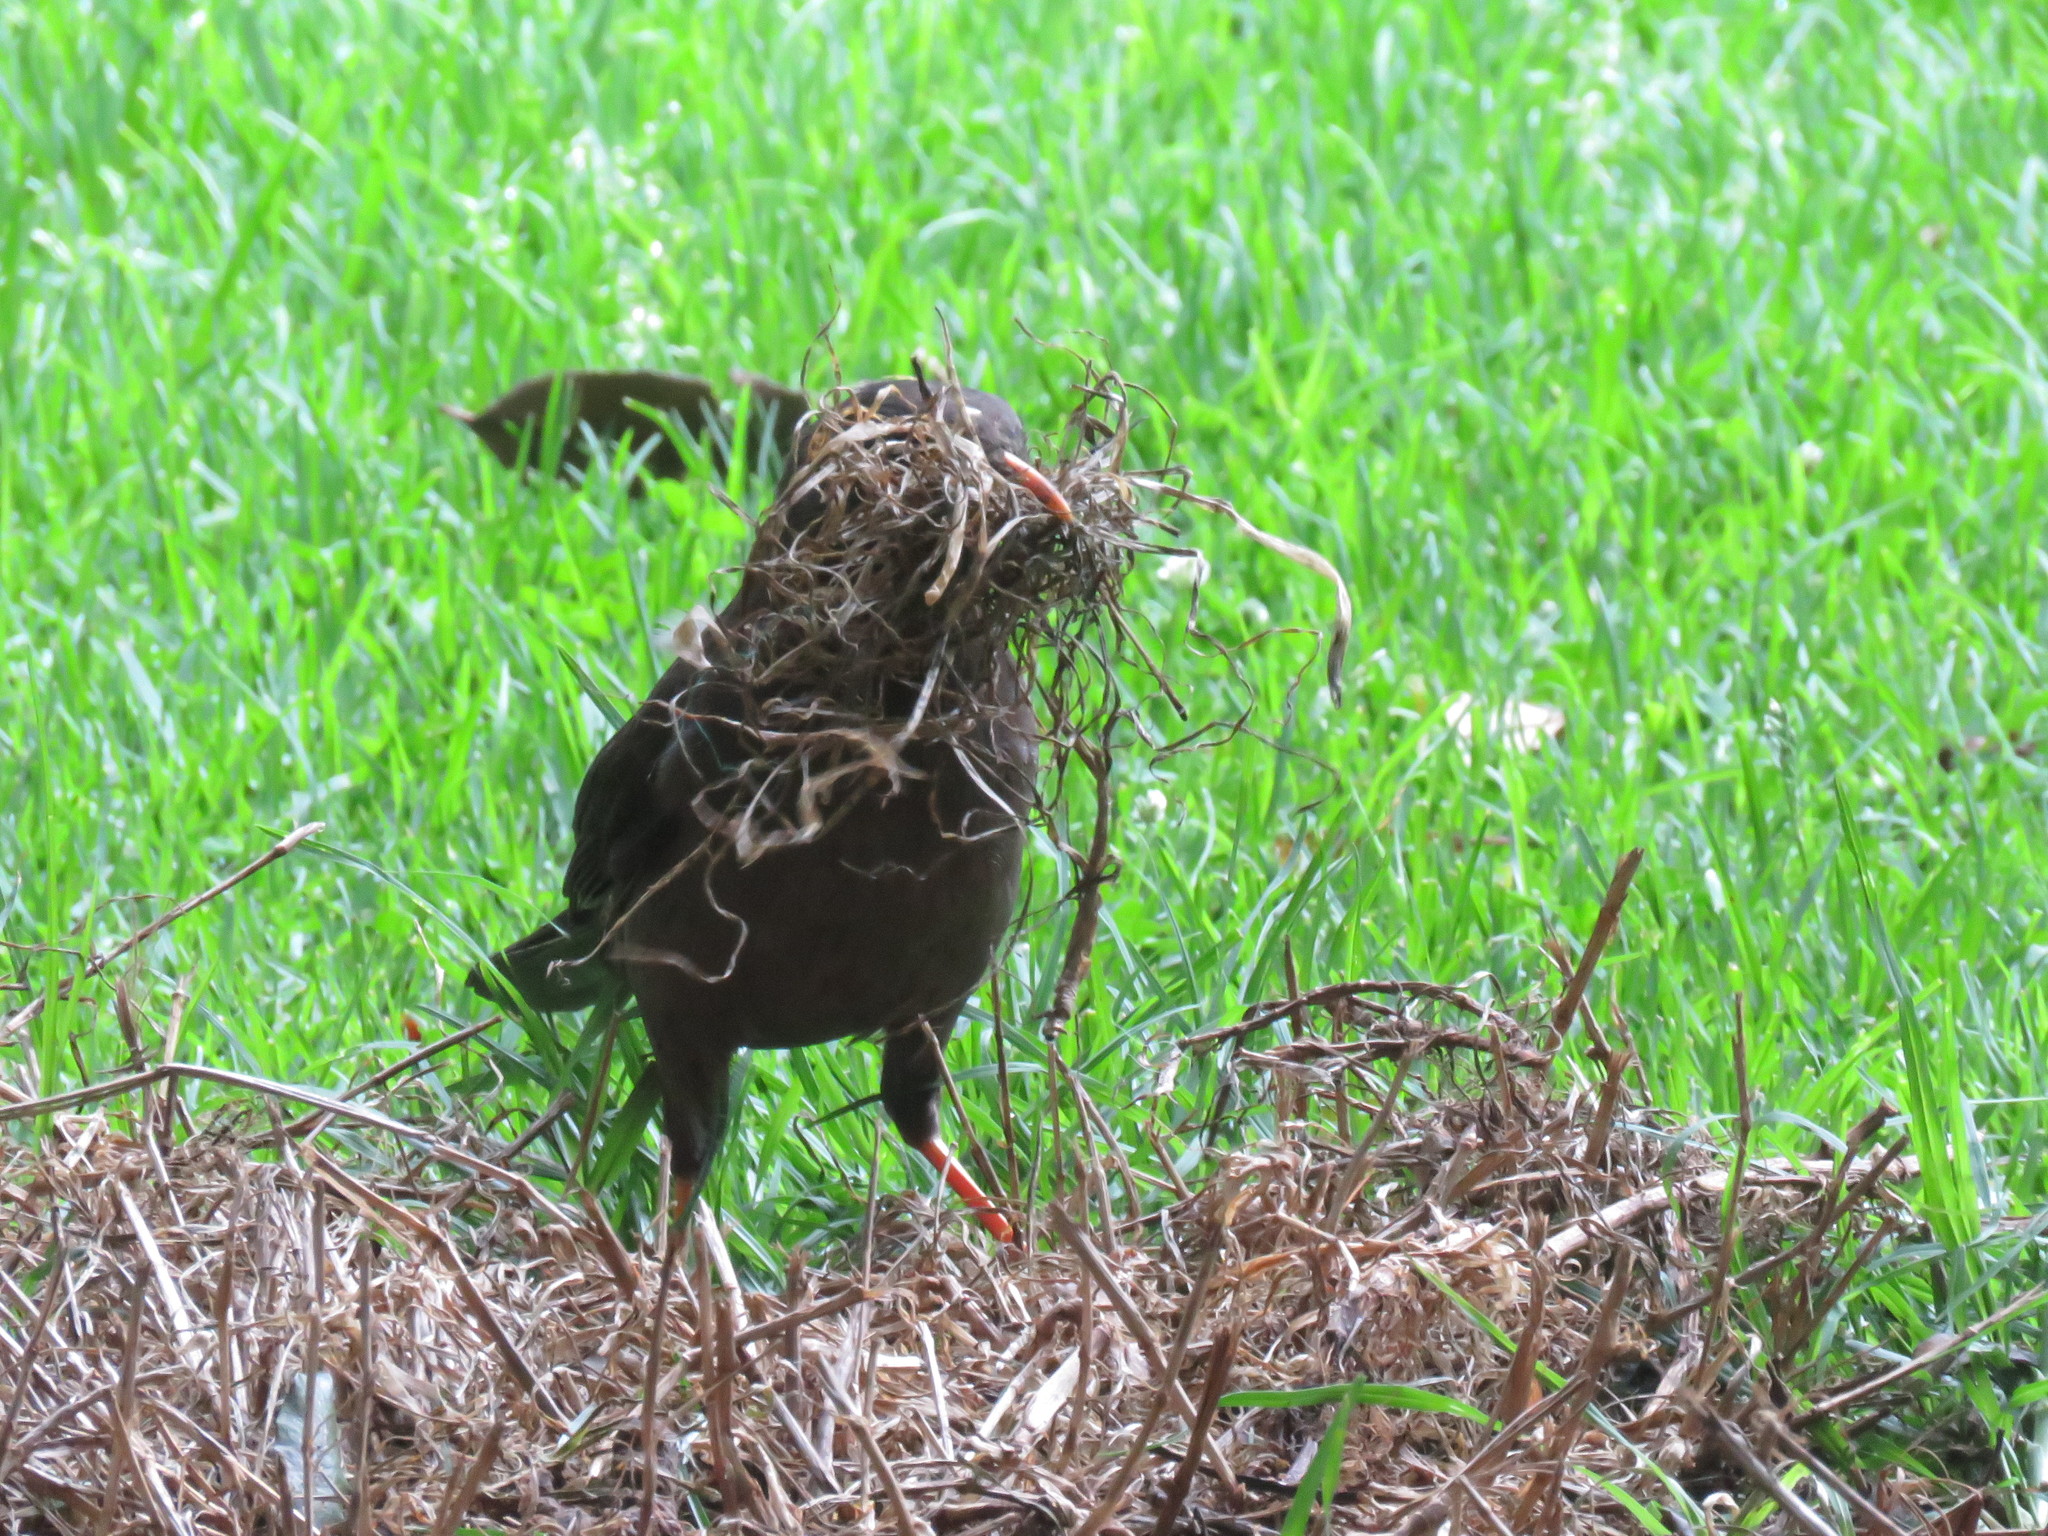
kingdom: Plantae
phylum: Tracheophyta
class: Liliopsida
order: Poales
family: Poaceae
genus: Cenchrus
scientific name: Cenchrus clandestinus
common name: Kikuyugrass
